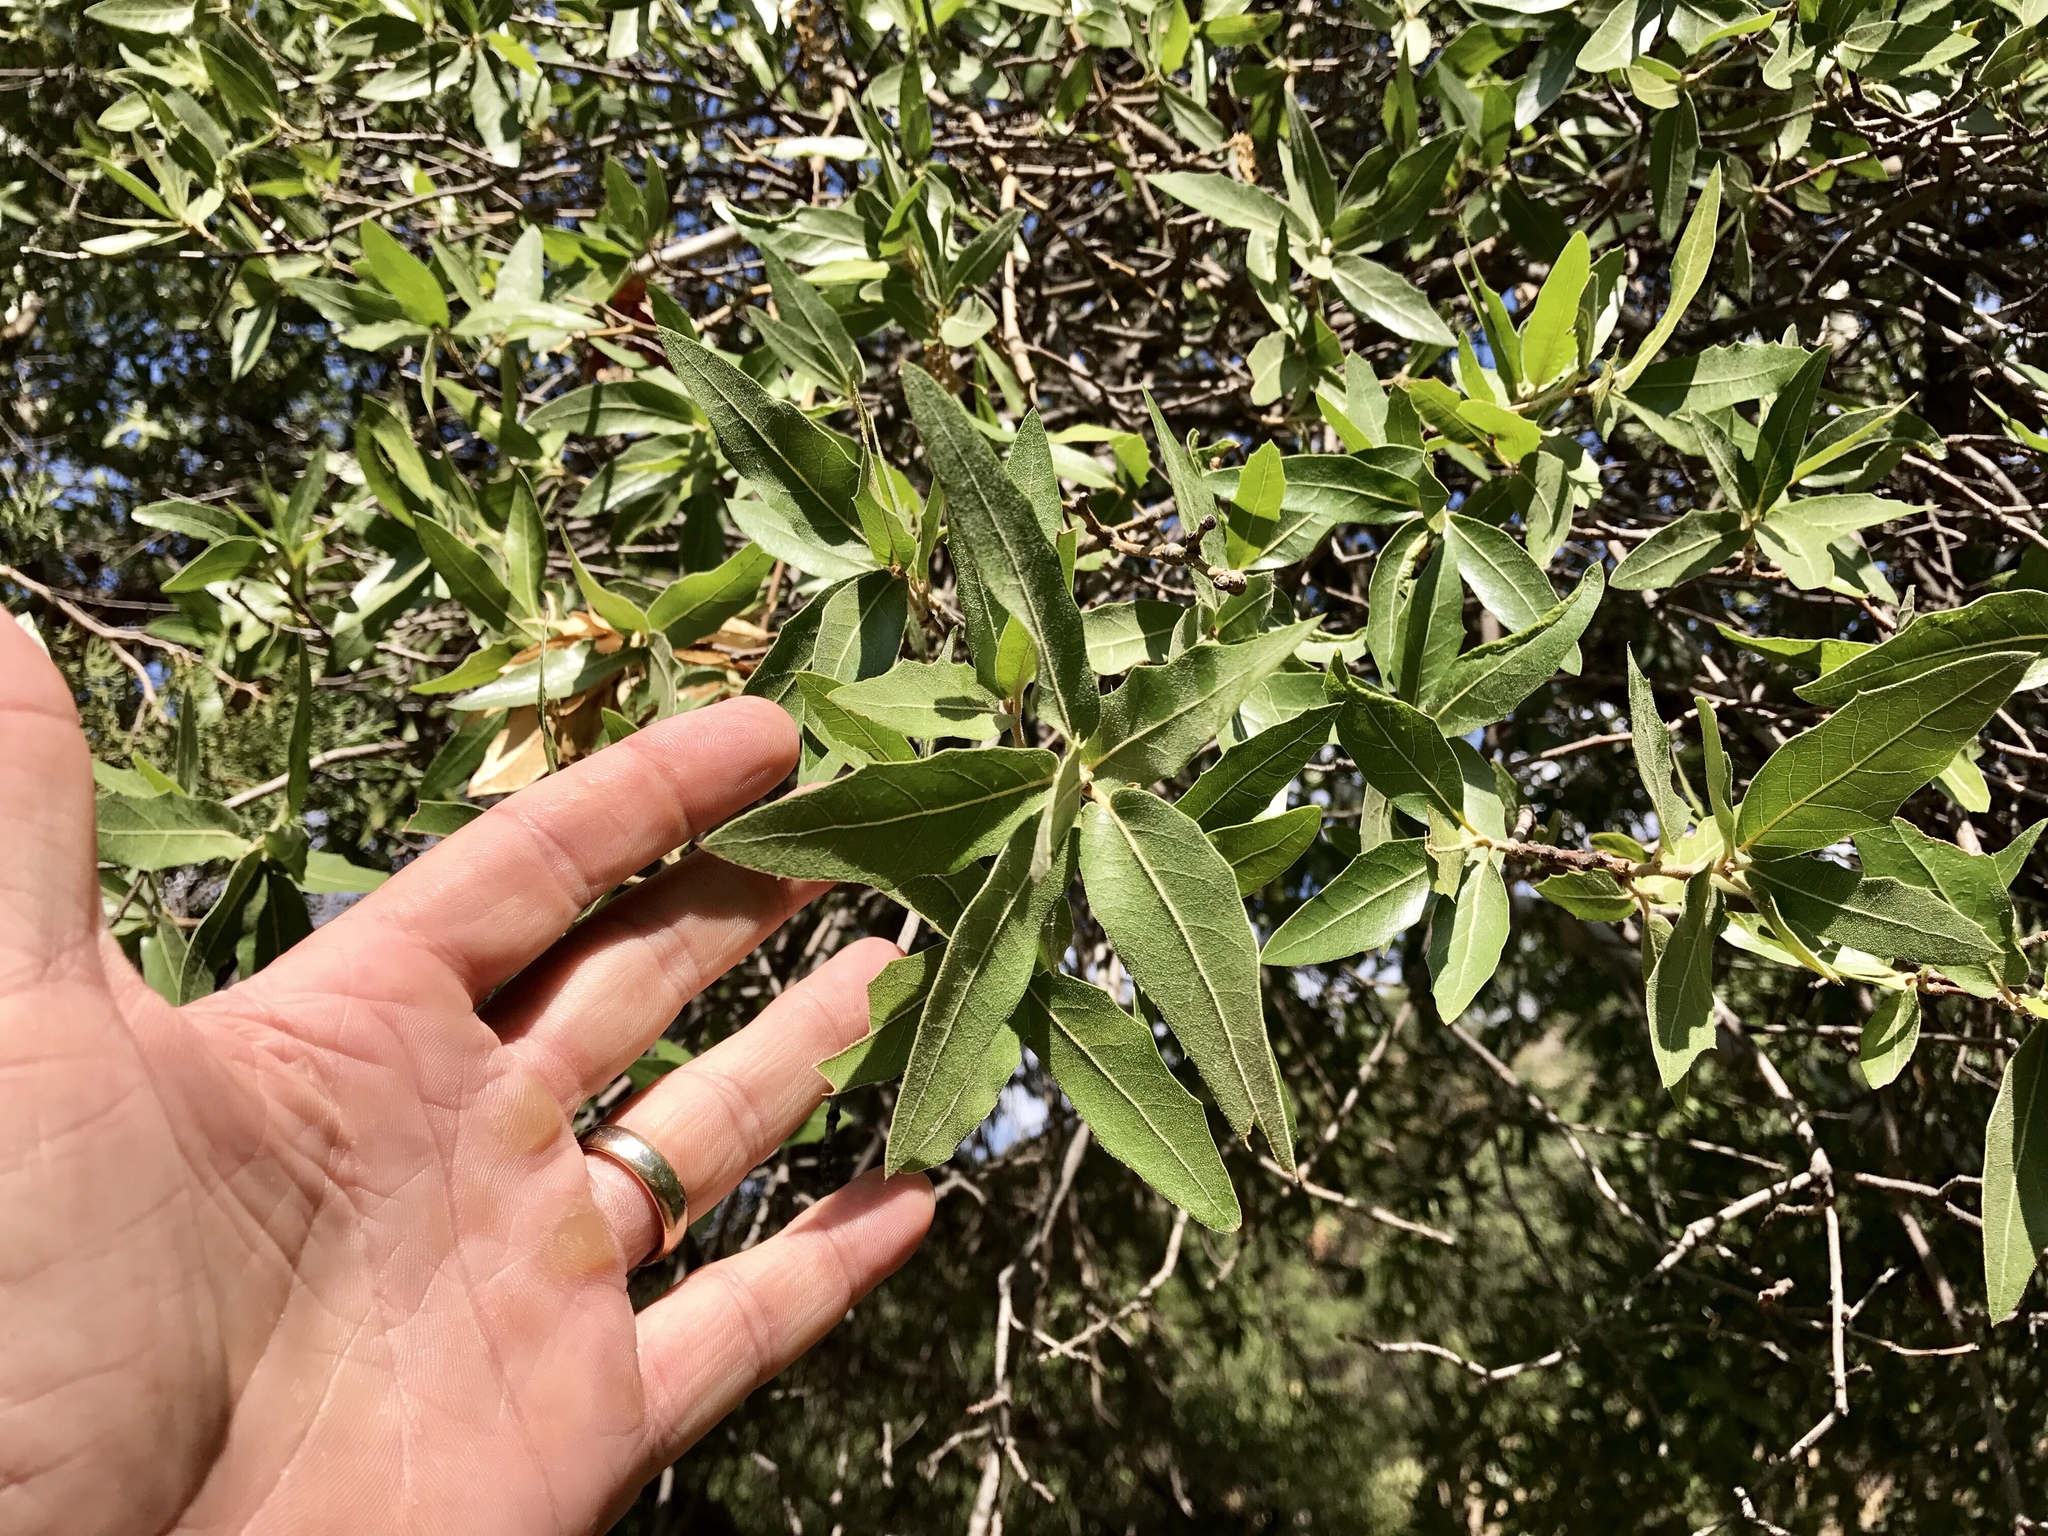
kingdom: Plantae
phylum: Tracheophyta
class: Magnoliopsida
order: Fagales
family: Fagaceae
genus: Quercus
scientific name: Quercus emoryi
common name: Emory oak
